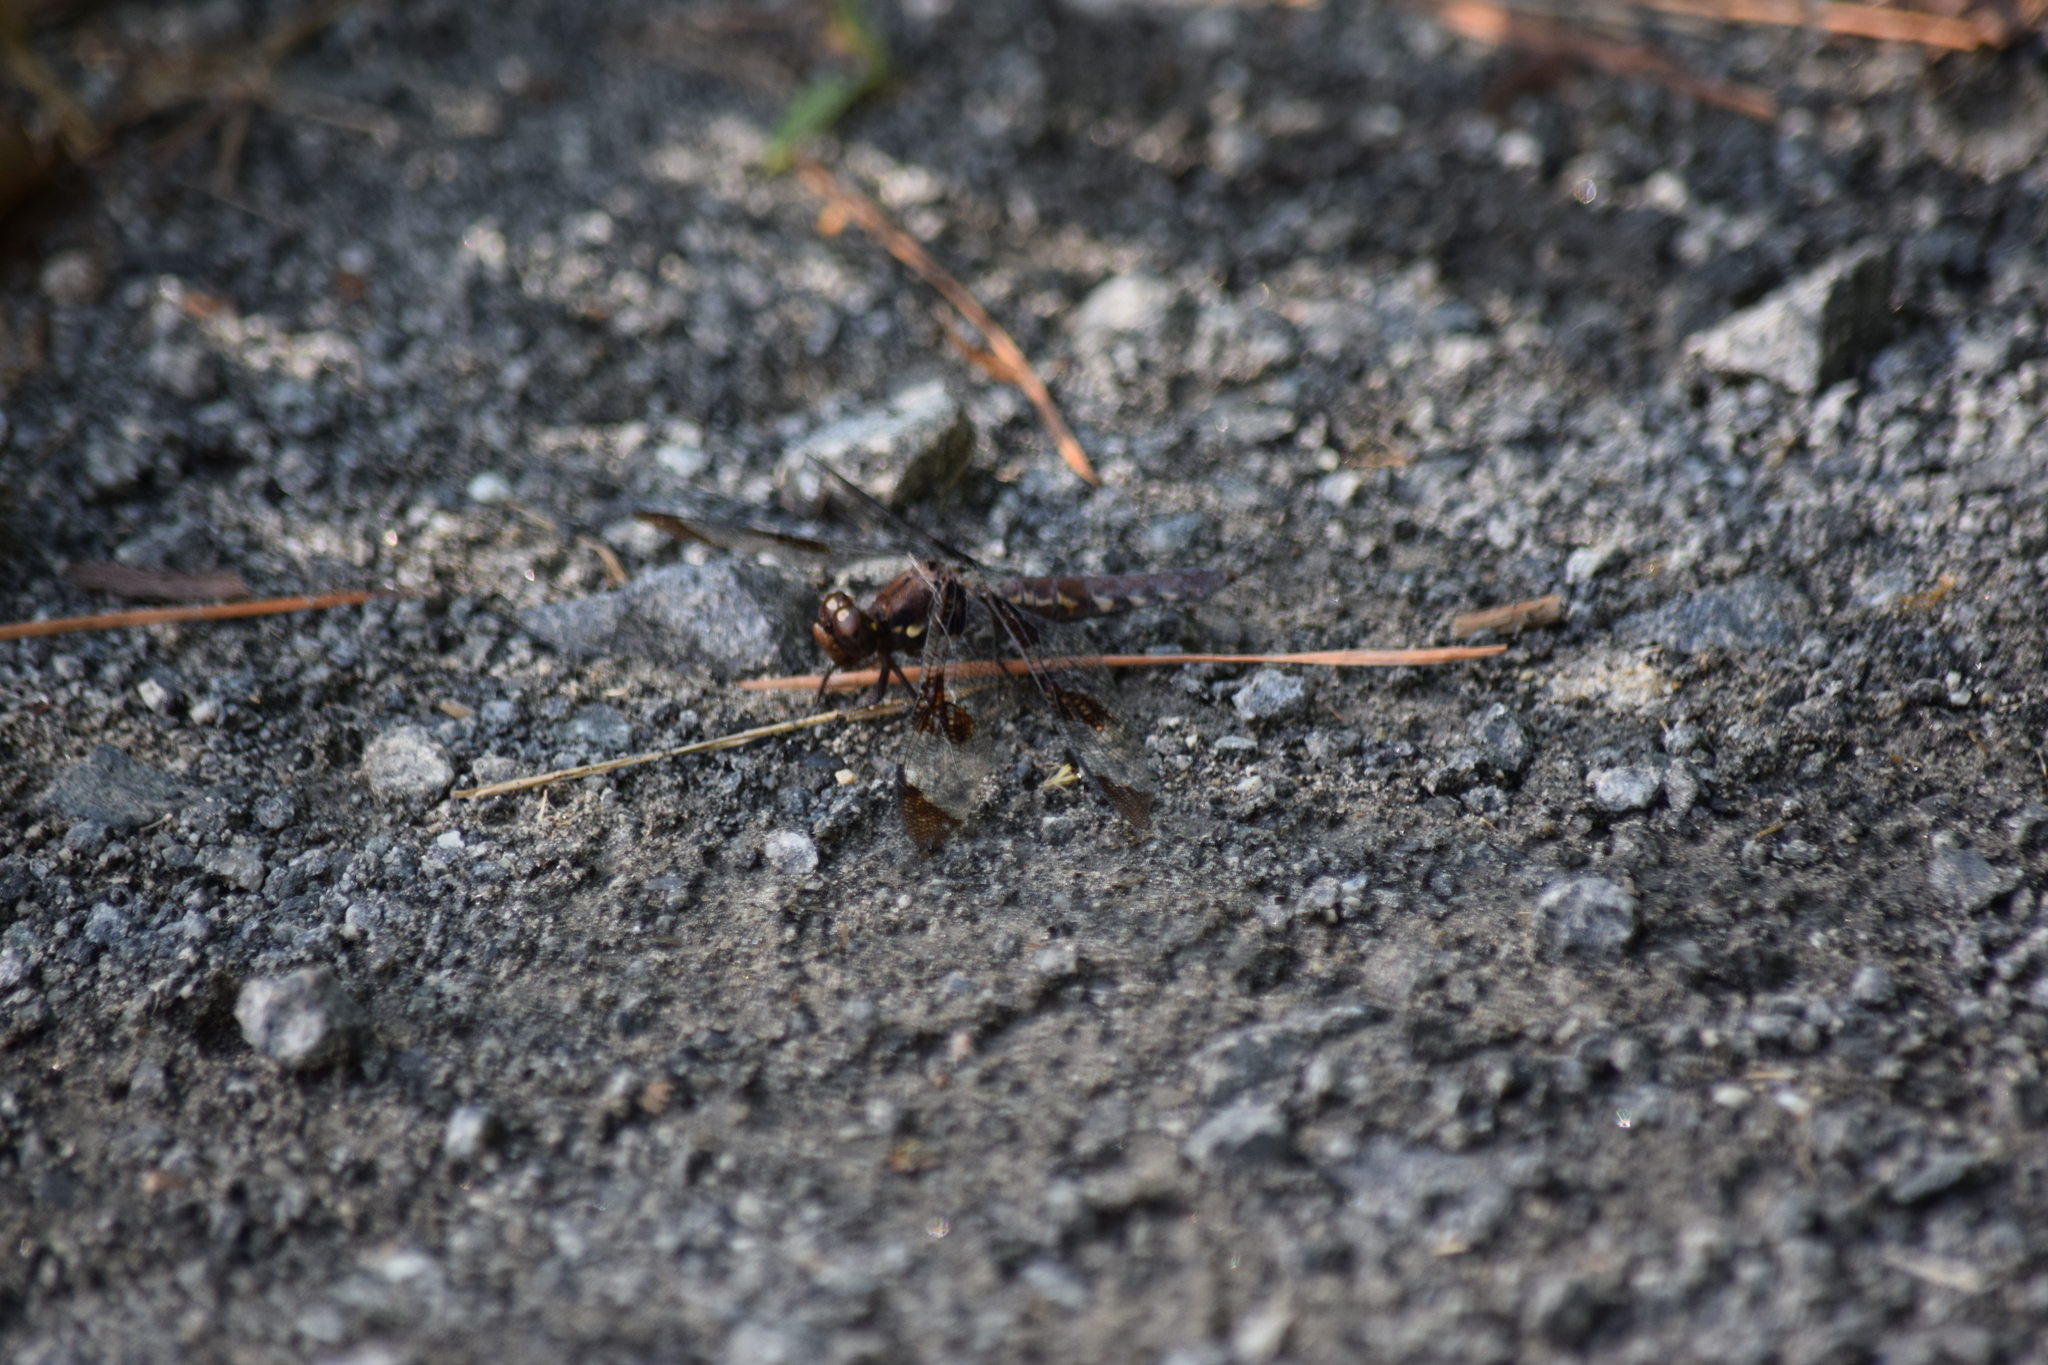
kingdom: Animalia
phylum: Arthropoda
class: Insecta
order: Odonata
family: Libellulidae
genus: Plathemis
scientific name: Plathemis lydia
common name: Common whitetail
